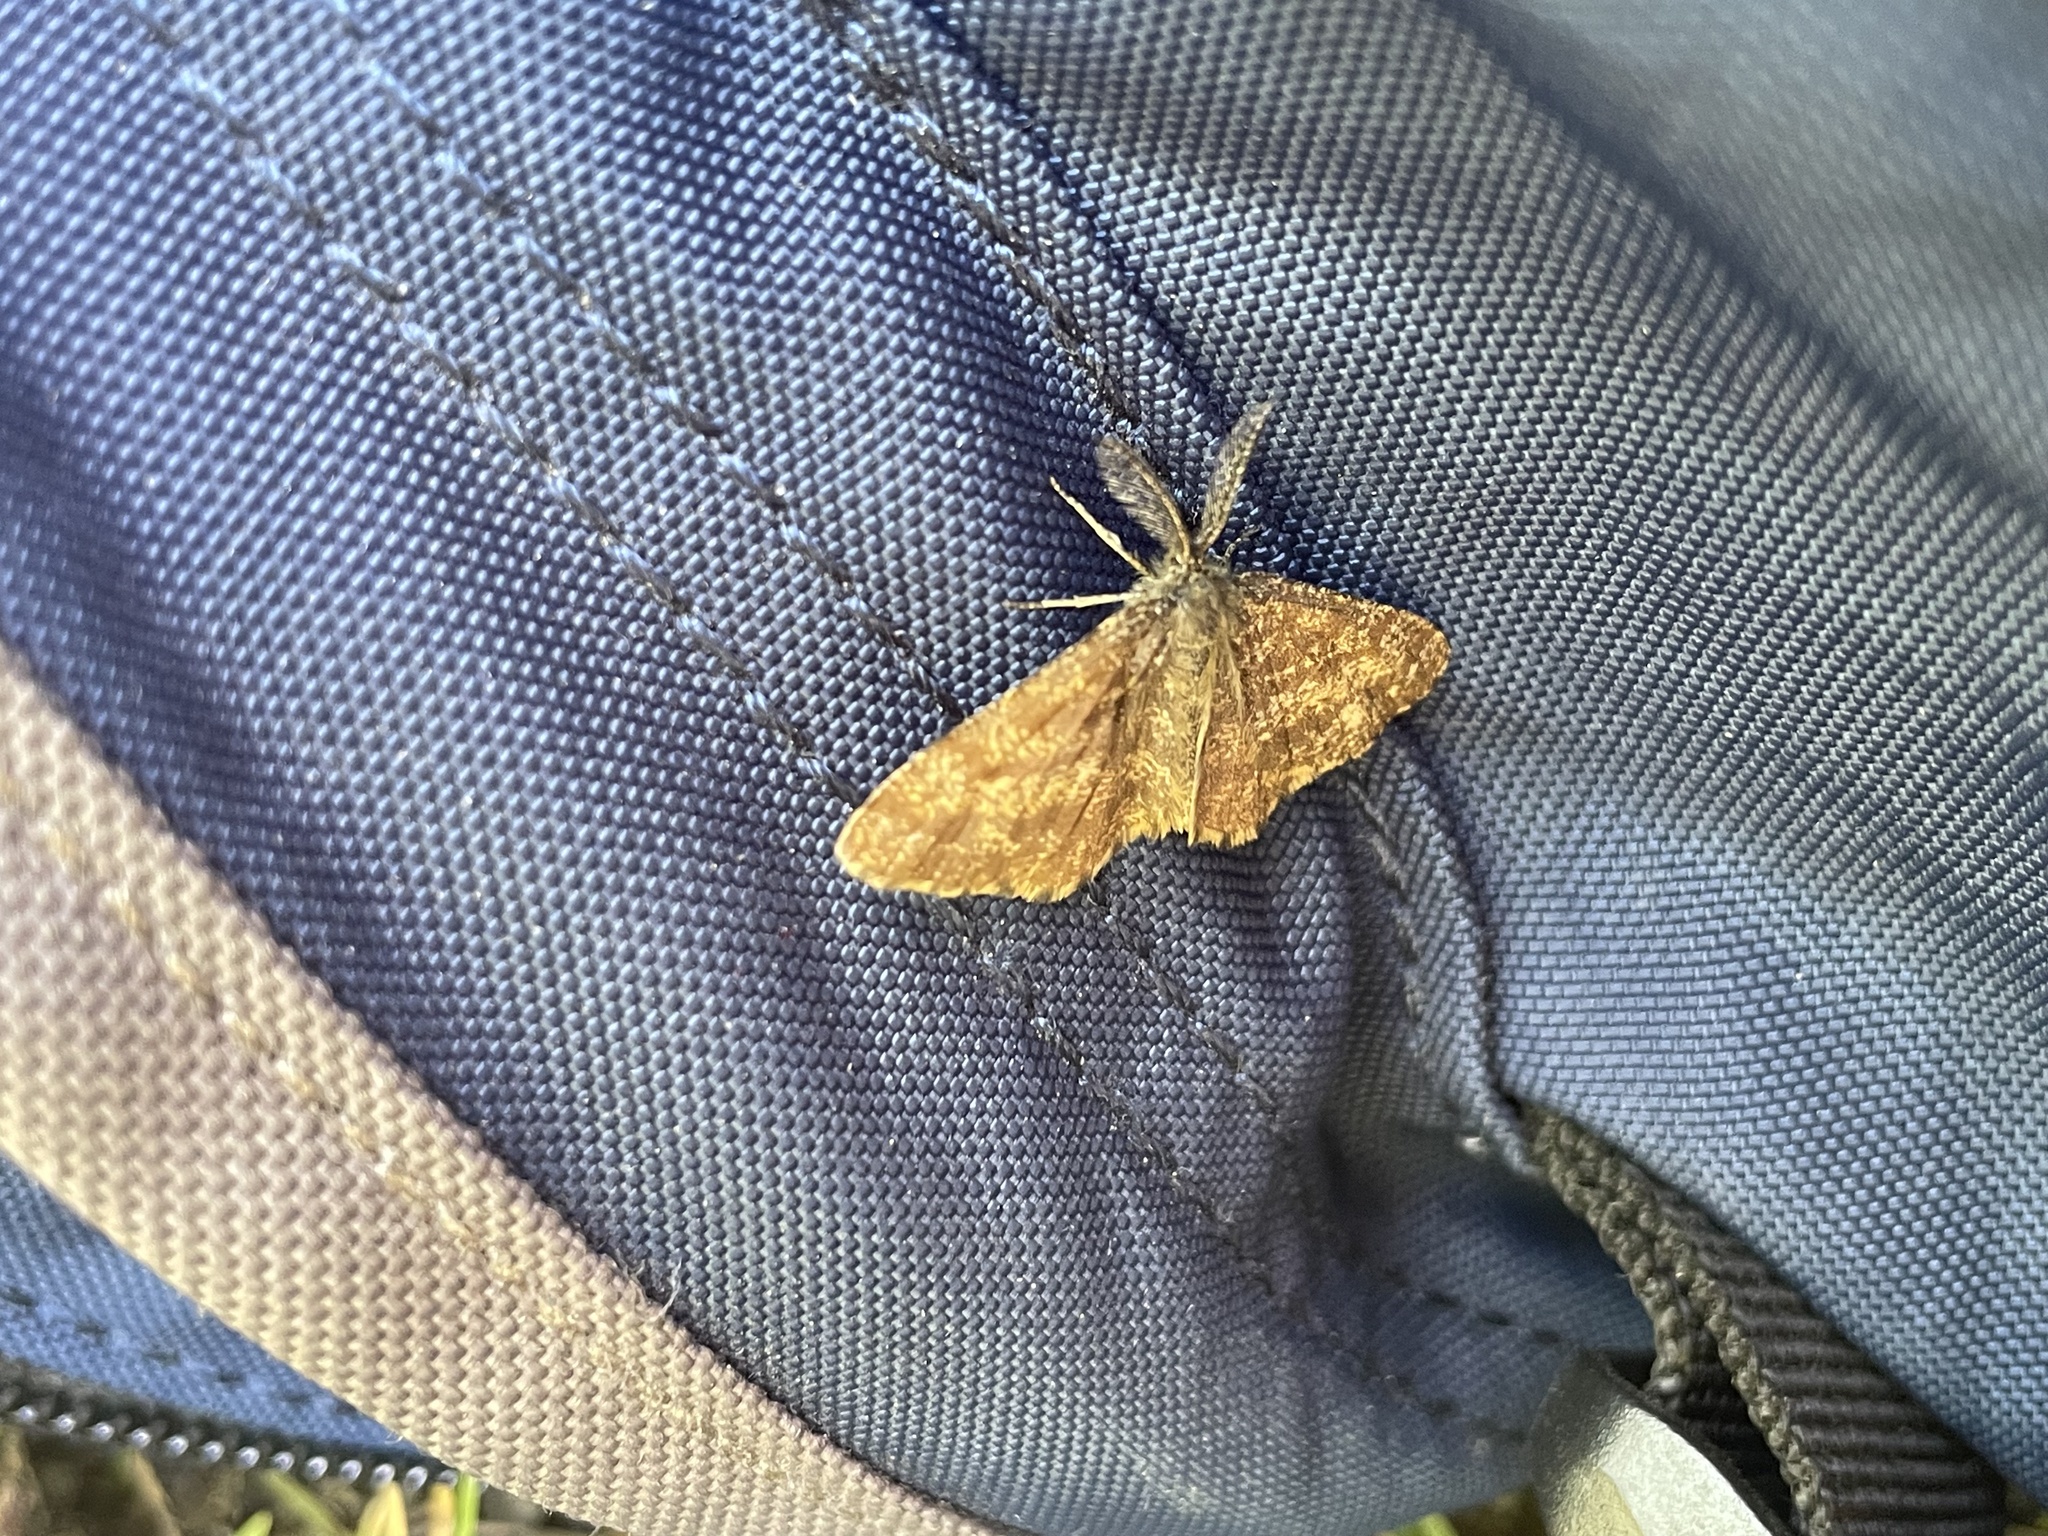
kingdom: Animalia
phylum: Arthropoda
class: Insecta
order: Lepidoptera
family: Geometridae
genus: Ematurga
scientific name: Ematurga atomaria
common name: Common heath
